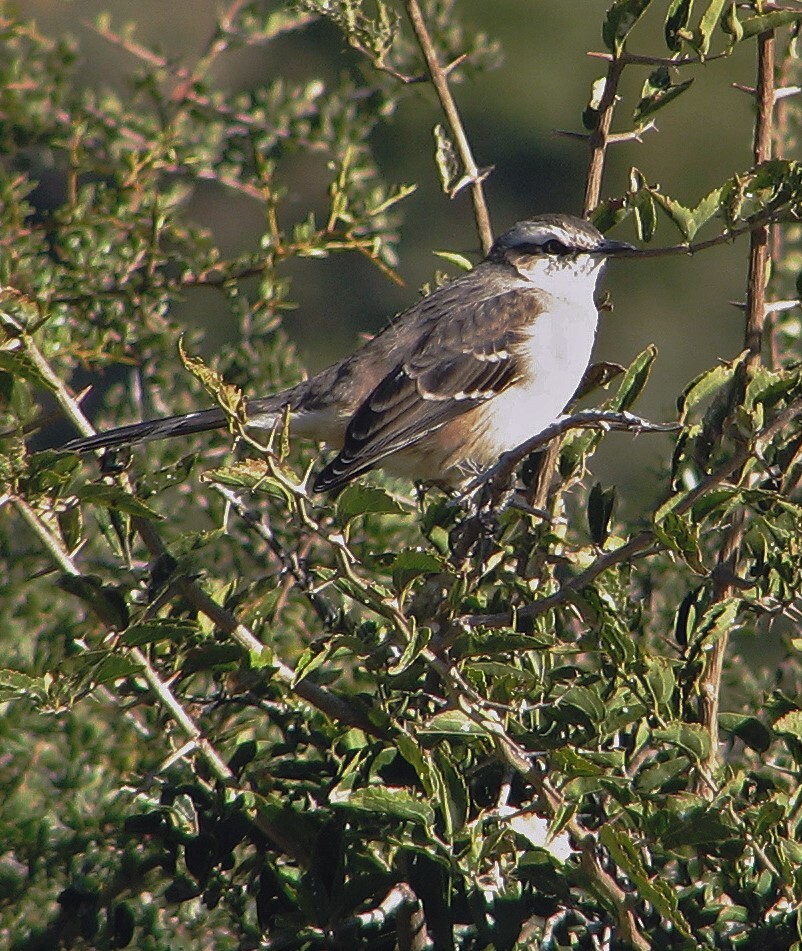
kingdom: Animalia
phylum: Chordata
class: Aves
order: Passeriformes
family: Mimidae
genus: Mimus
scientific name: Mimus saturninus
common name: Chalk-browed mockingbird
